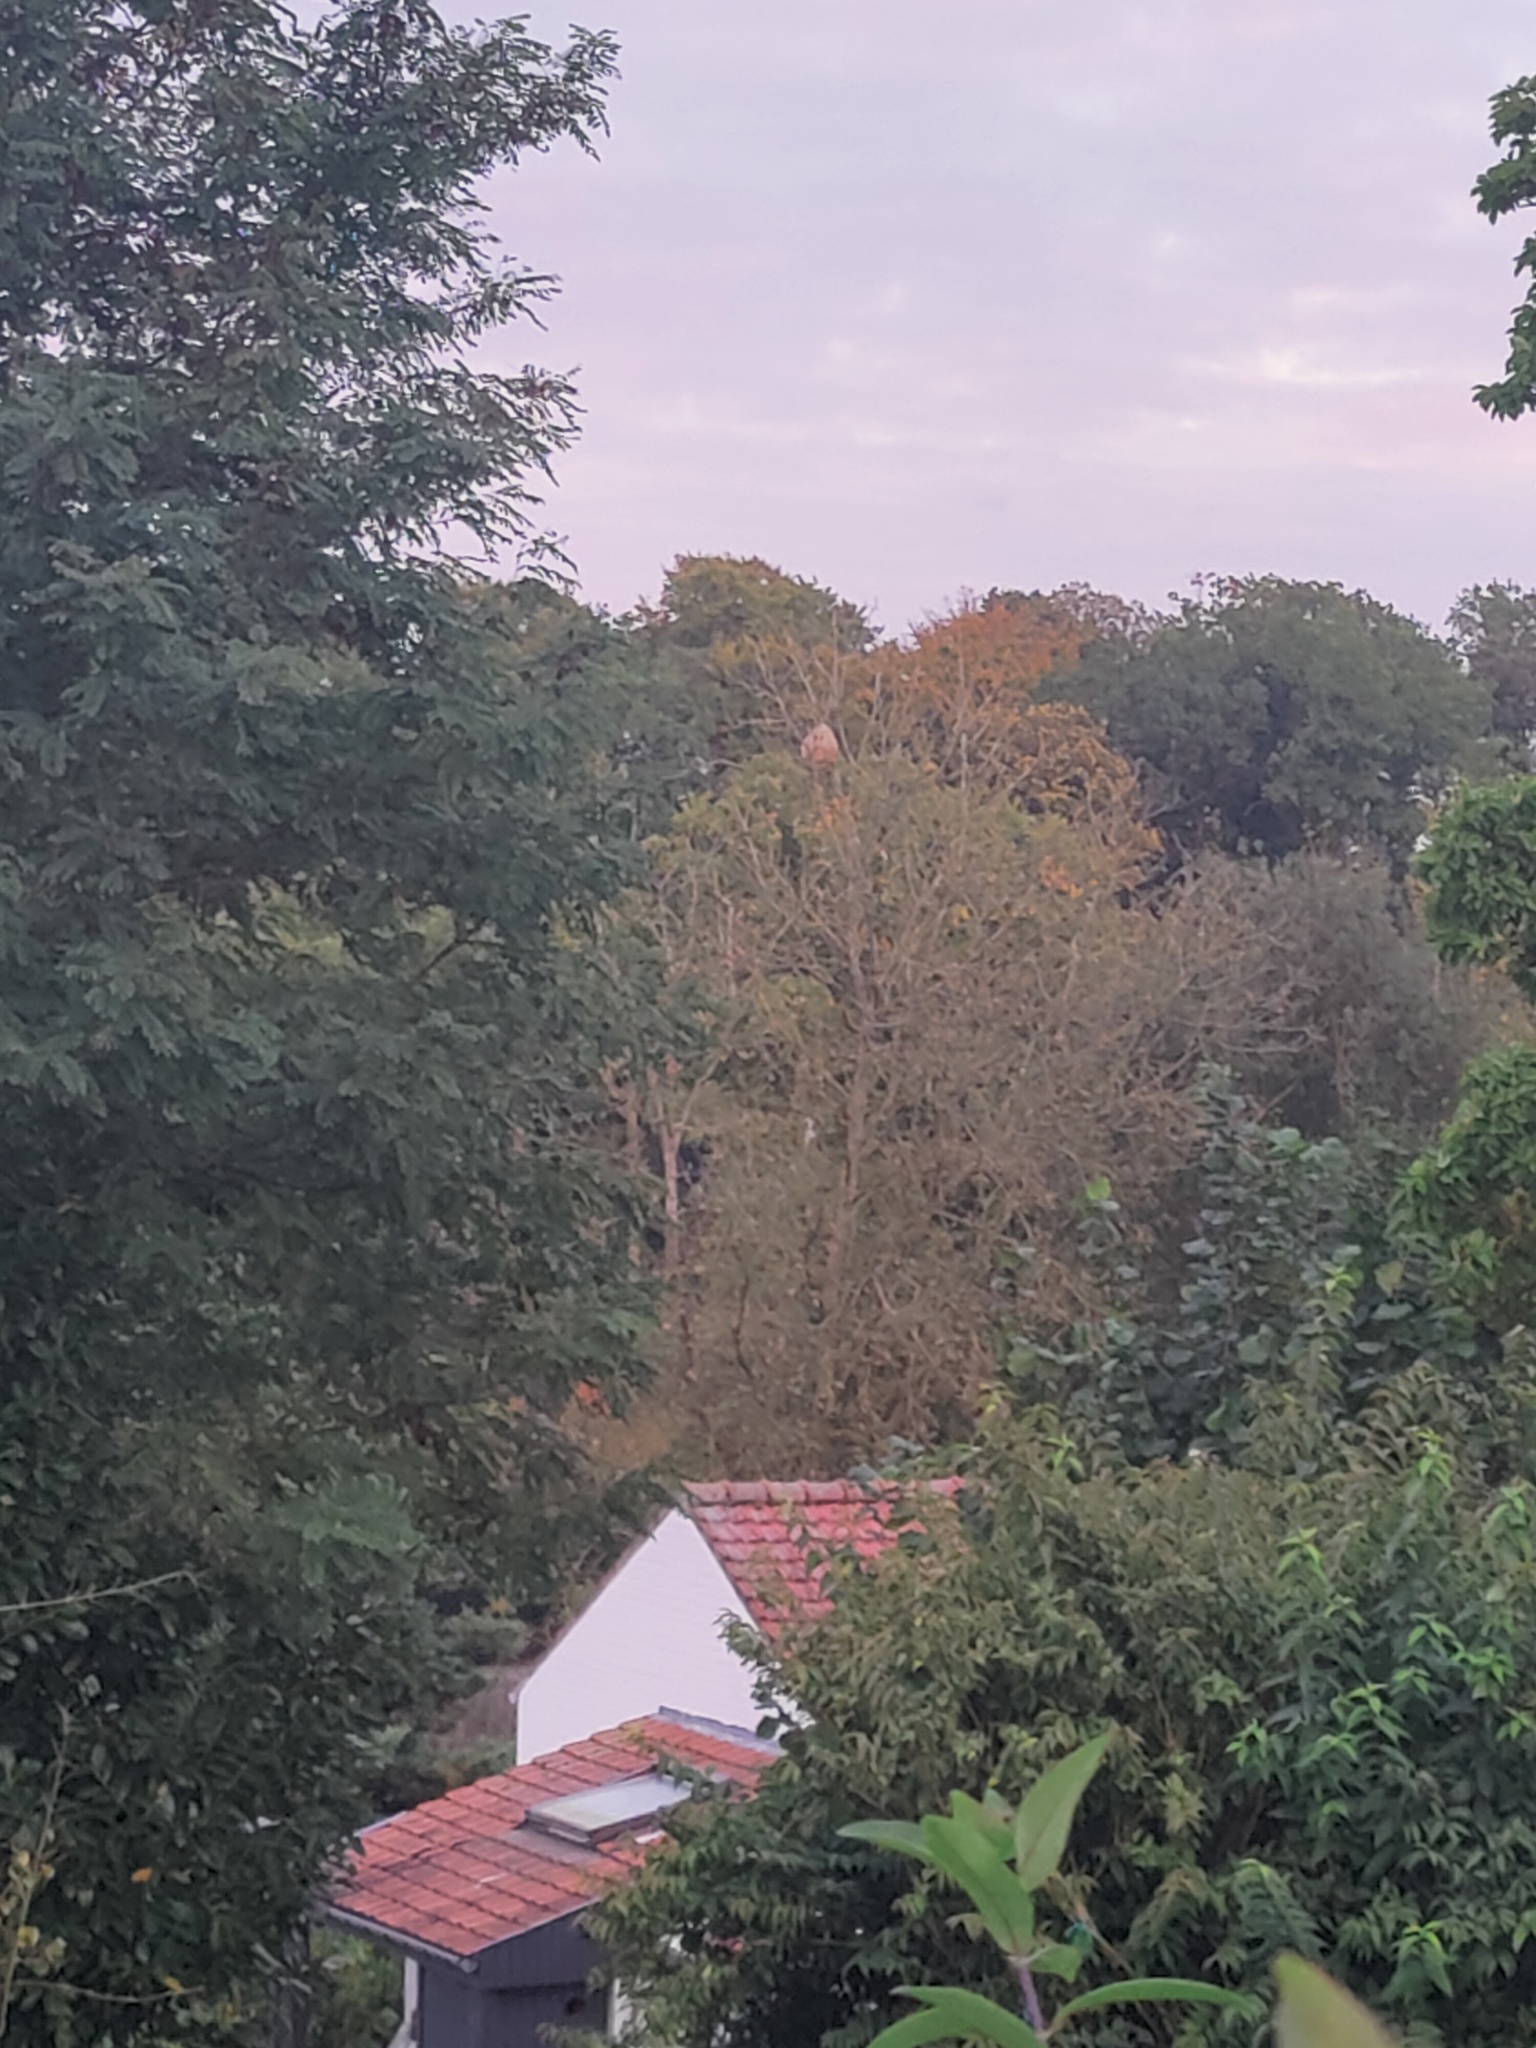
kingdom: Animalia
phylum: Arthropoda
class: Insecta
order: Hymenoptera
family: Vespidae
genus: Vespa
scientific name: Vespa velutina
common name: Asian hornet
